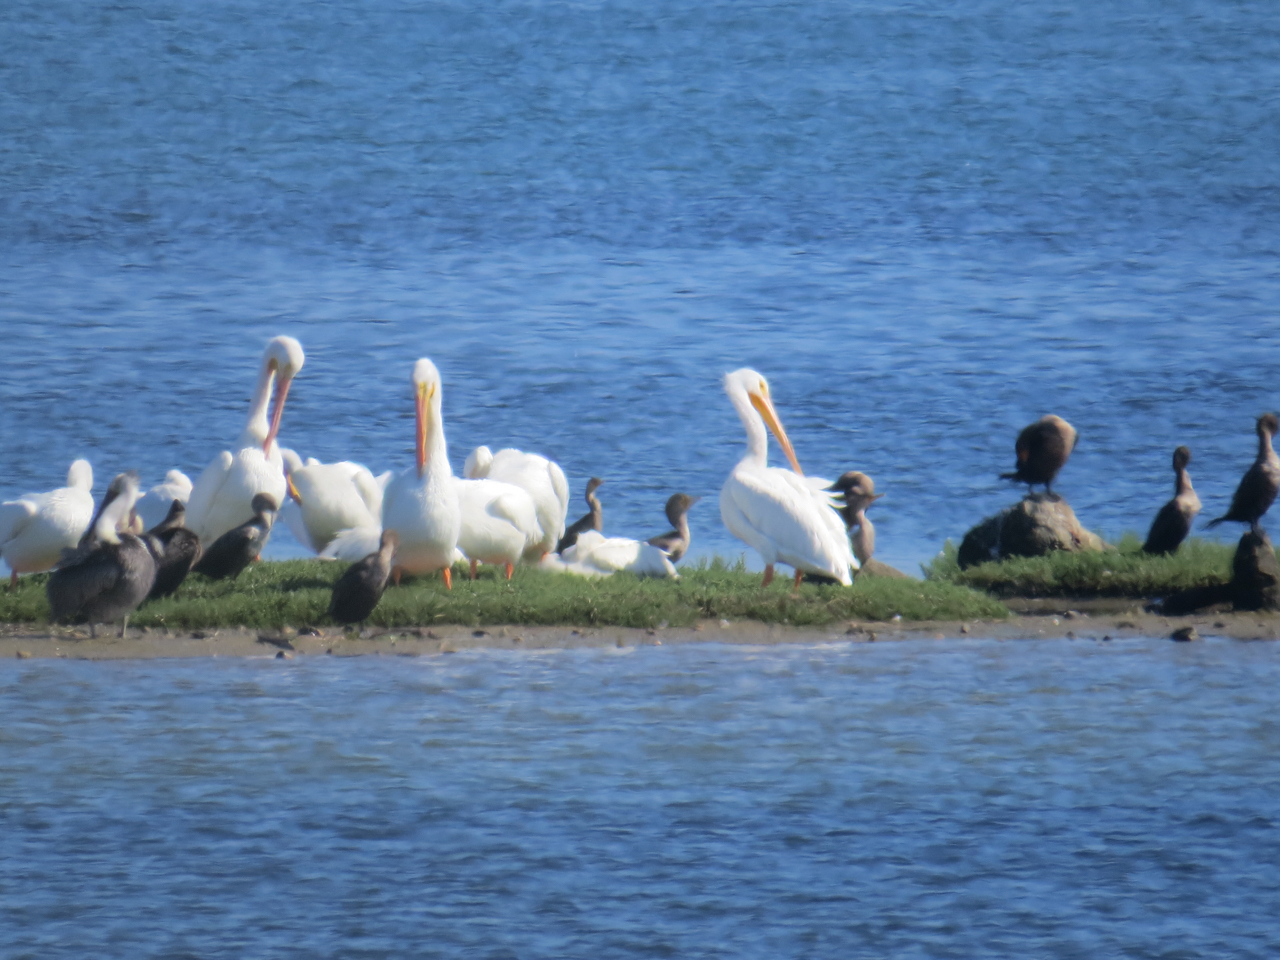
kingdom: Animalia
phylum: Chordata
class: Aves
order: Pelecaniformes
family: Pelecanidae
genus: Pelecanus
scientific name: Pelecanus erythrorhynchos
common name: American white pelican
